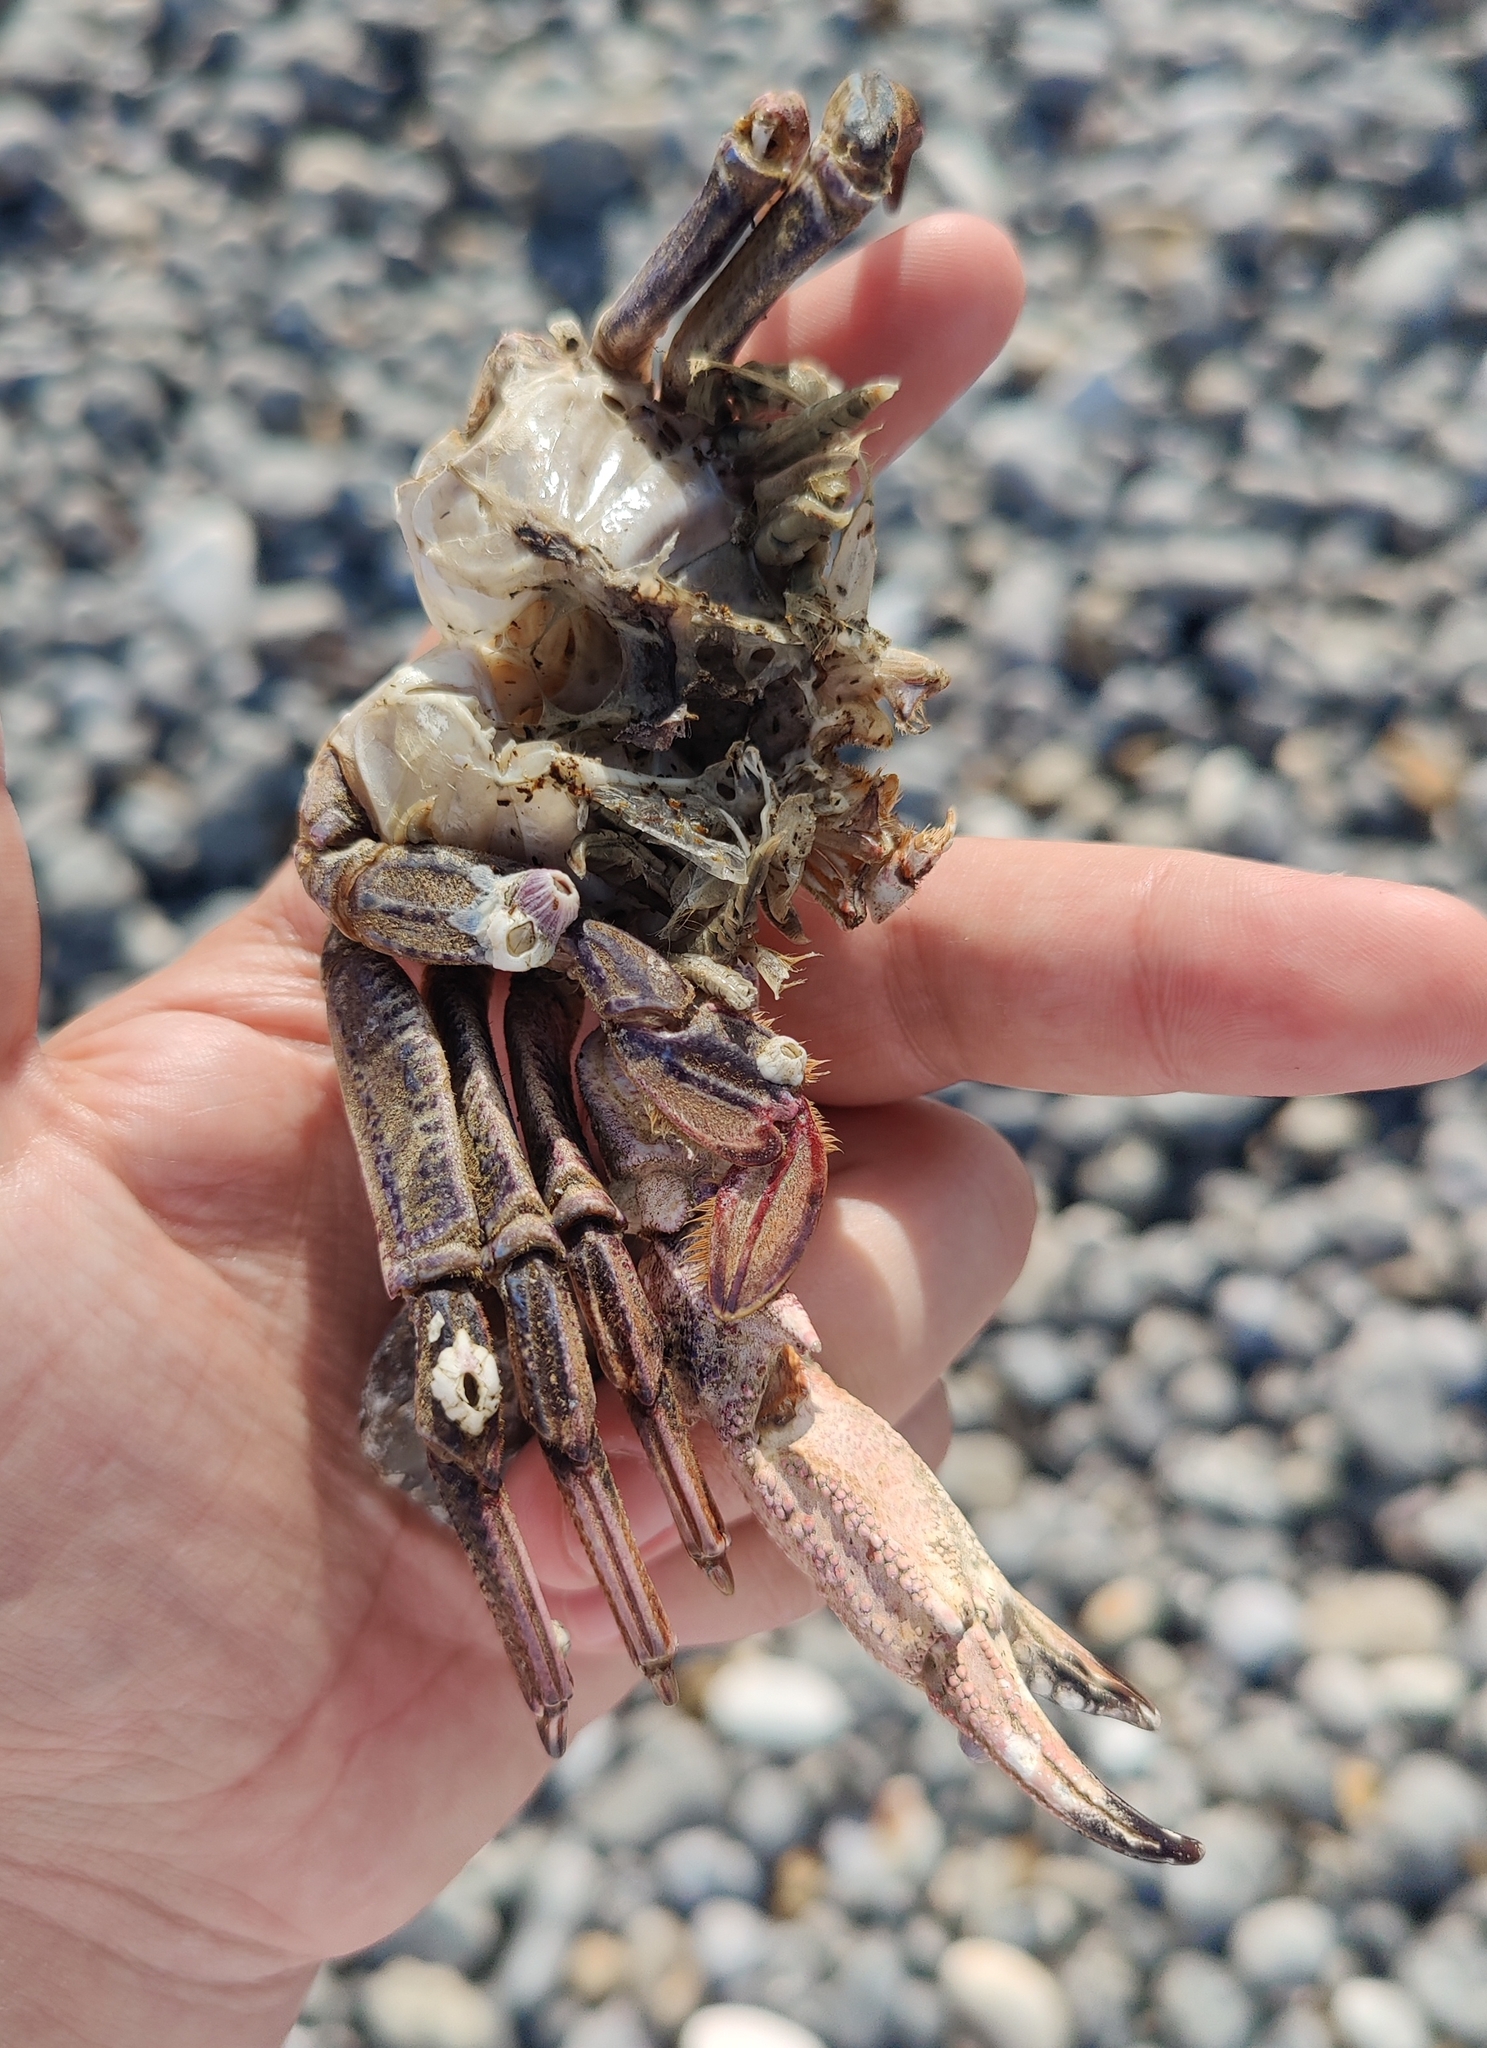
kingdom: Animalia
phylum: Arthropoda
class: Malacostraca
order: Decapoda
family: Polybiidae
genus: Necora
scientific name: Necora puber
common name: Velvet swimming crab
